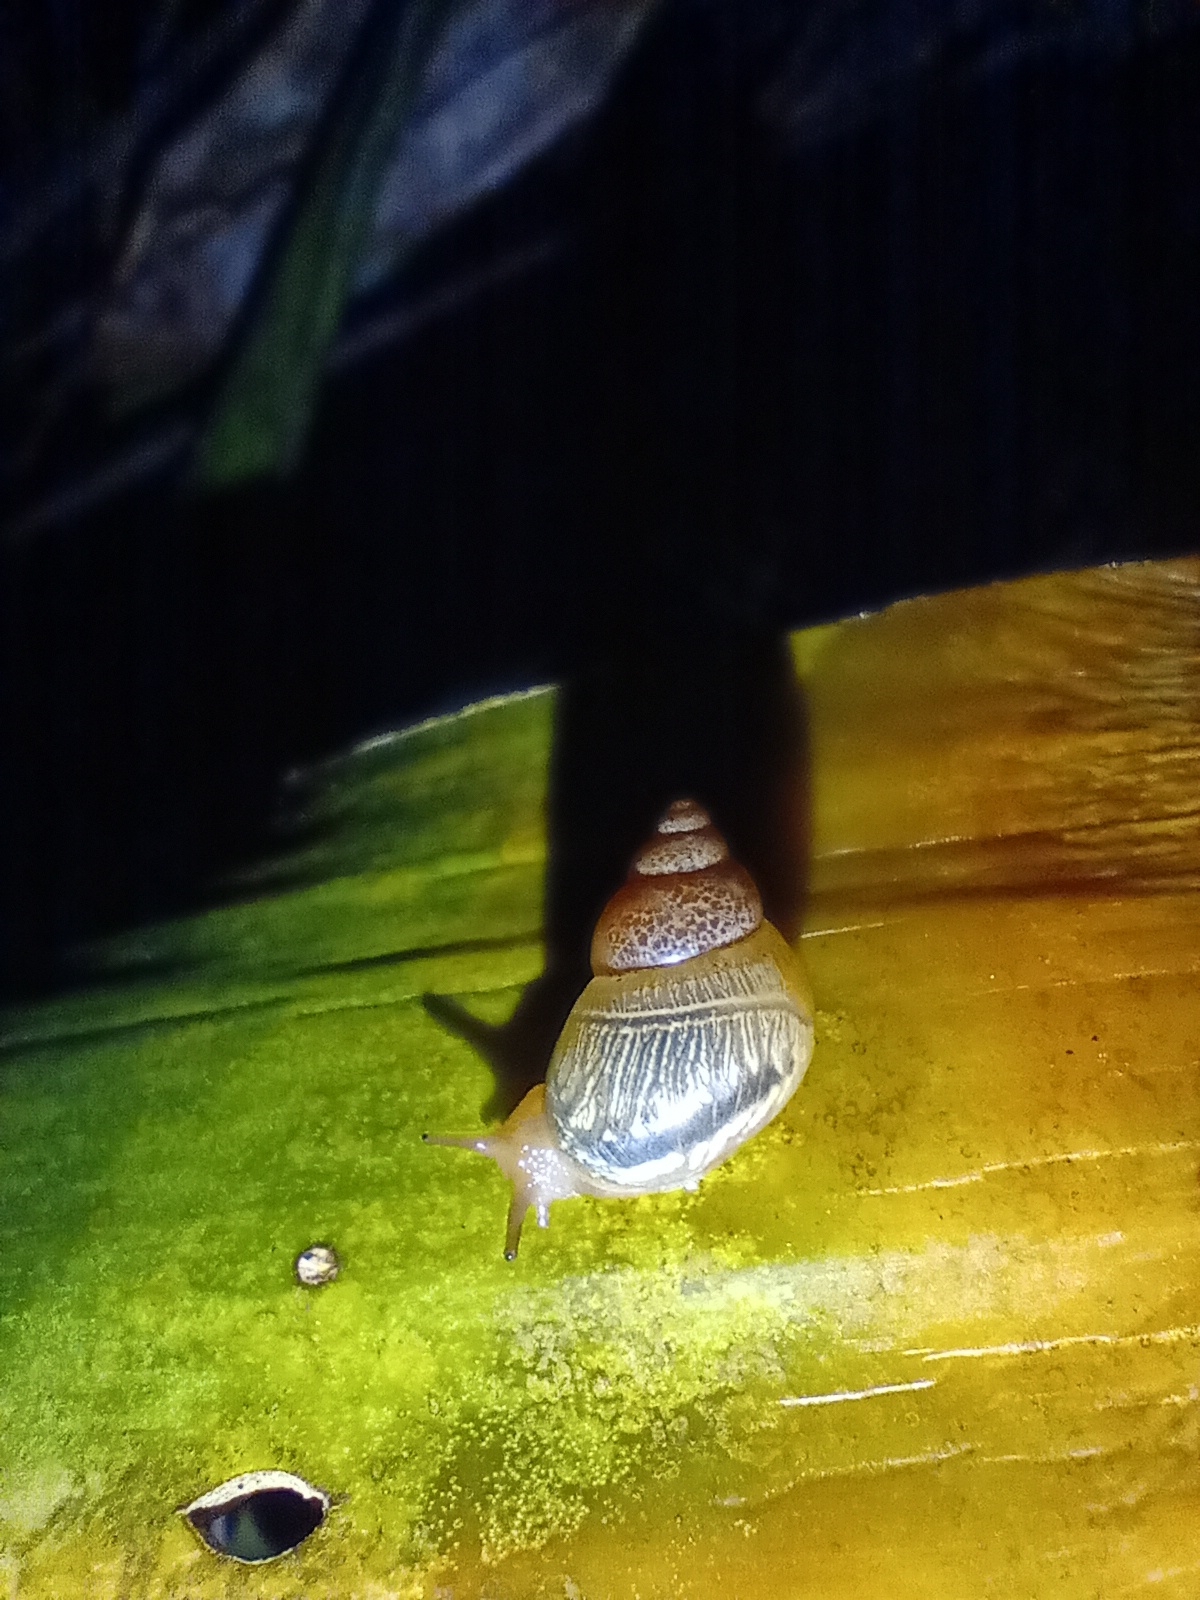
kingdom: Animalia
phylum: Mollusca
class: Gastropoda
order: Stylommatophora
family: Simpulopsidae
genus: Simpulopsis
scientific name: Simpulopsis citrinovitreus
